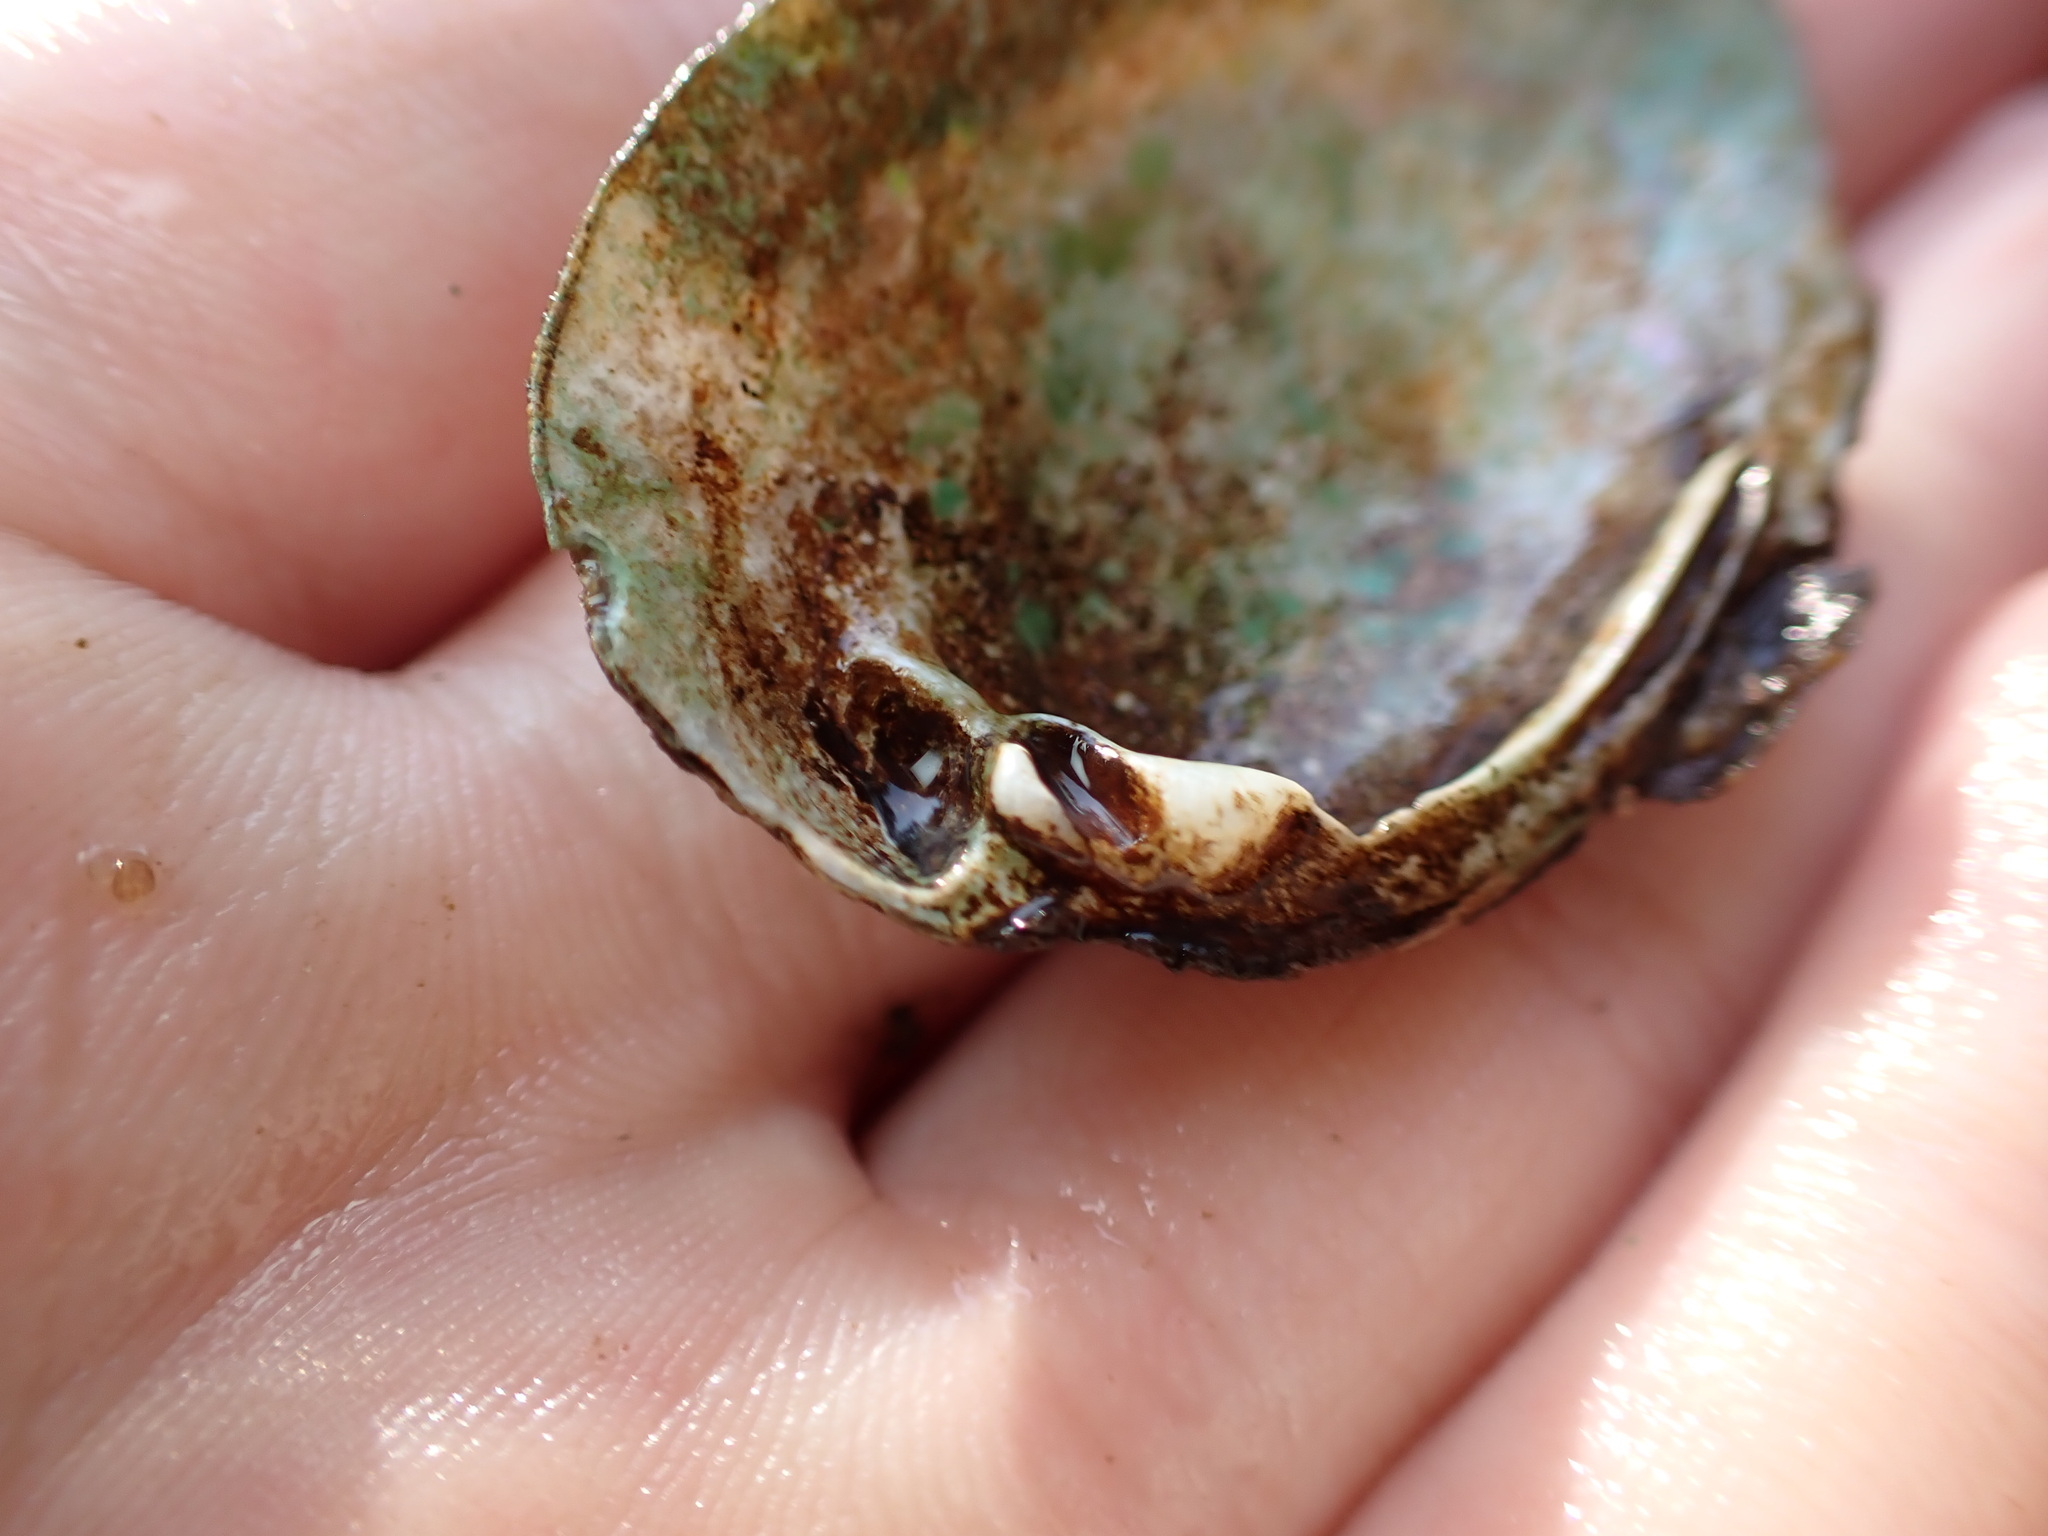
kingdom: Animalia
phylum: Mollusca
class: Bivalvia
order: Unionida
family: Unionidae
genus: Pleuronaia
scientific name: Pleuronaia barnesiana
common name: Tennessee pigtoe
